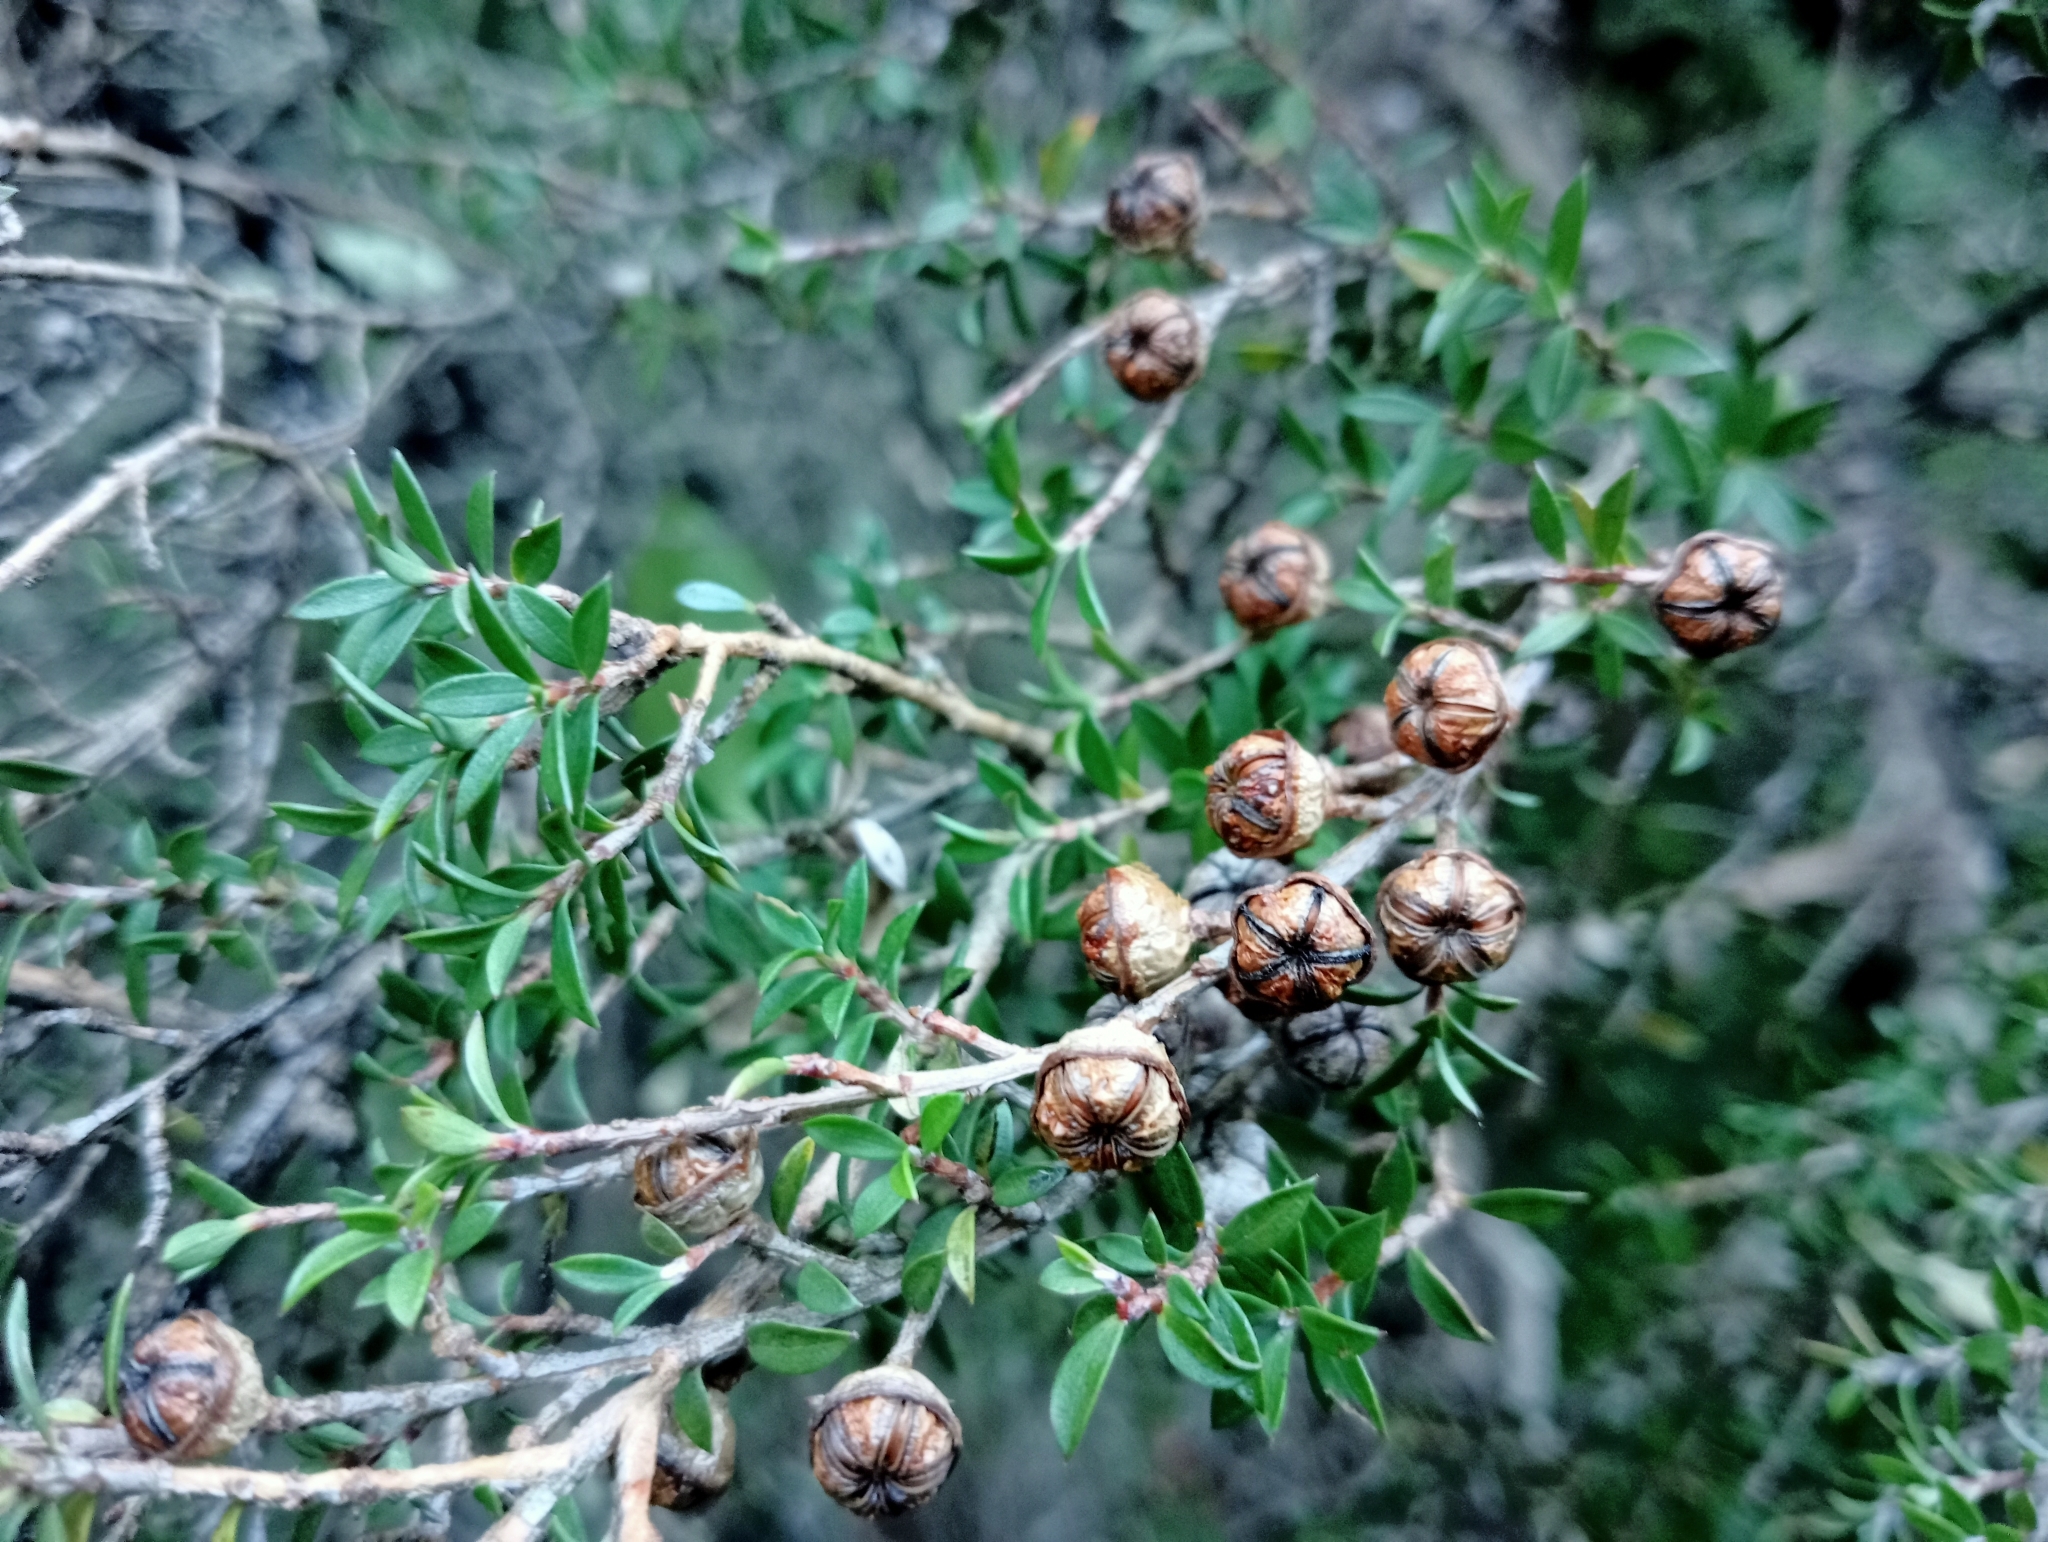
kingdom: Plantae
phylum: Tracheophyta
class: Magnoliopsida
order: Myrtales
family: Myrtaceae
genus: Leptospermum
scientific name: Leptospermum scoparium
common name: Broom tea-tree
